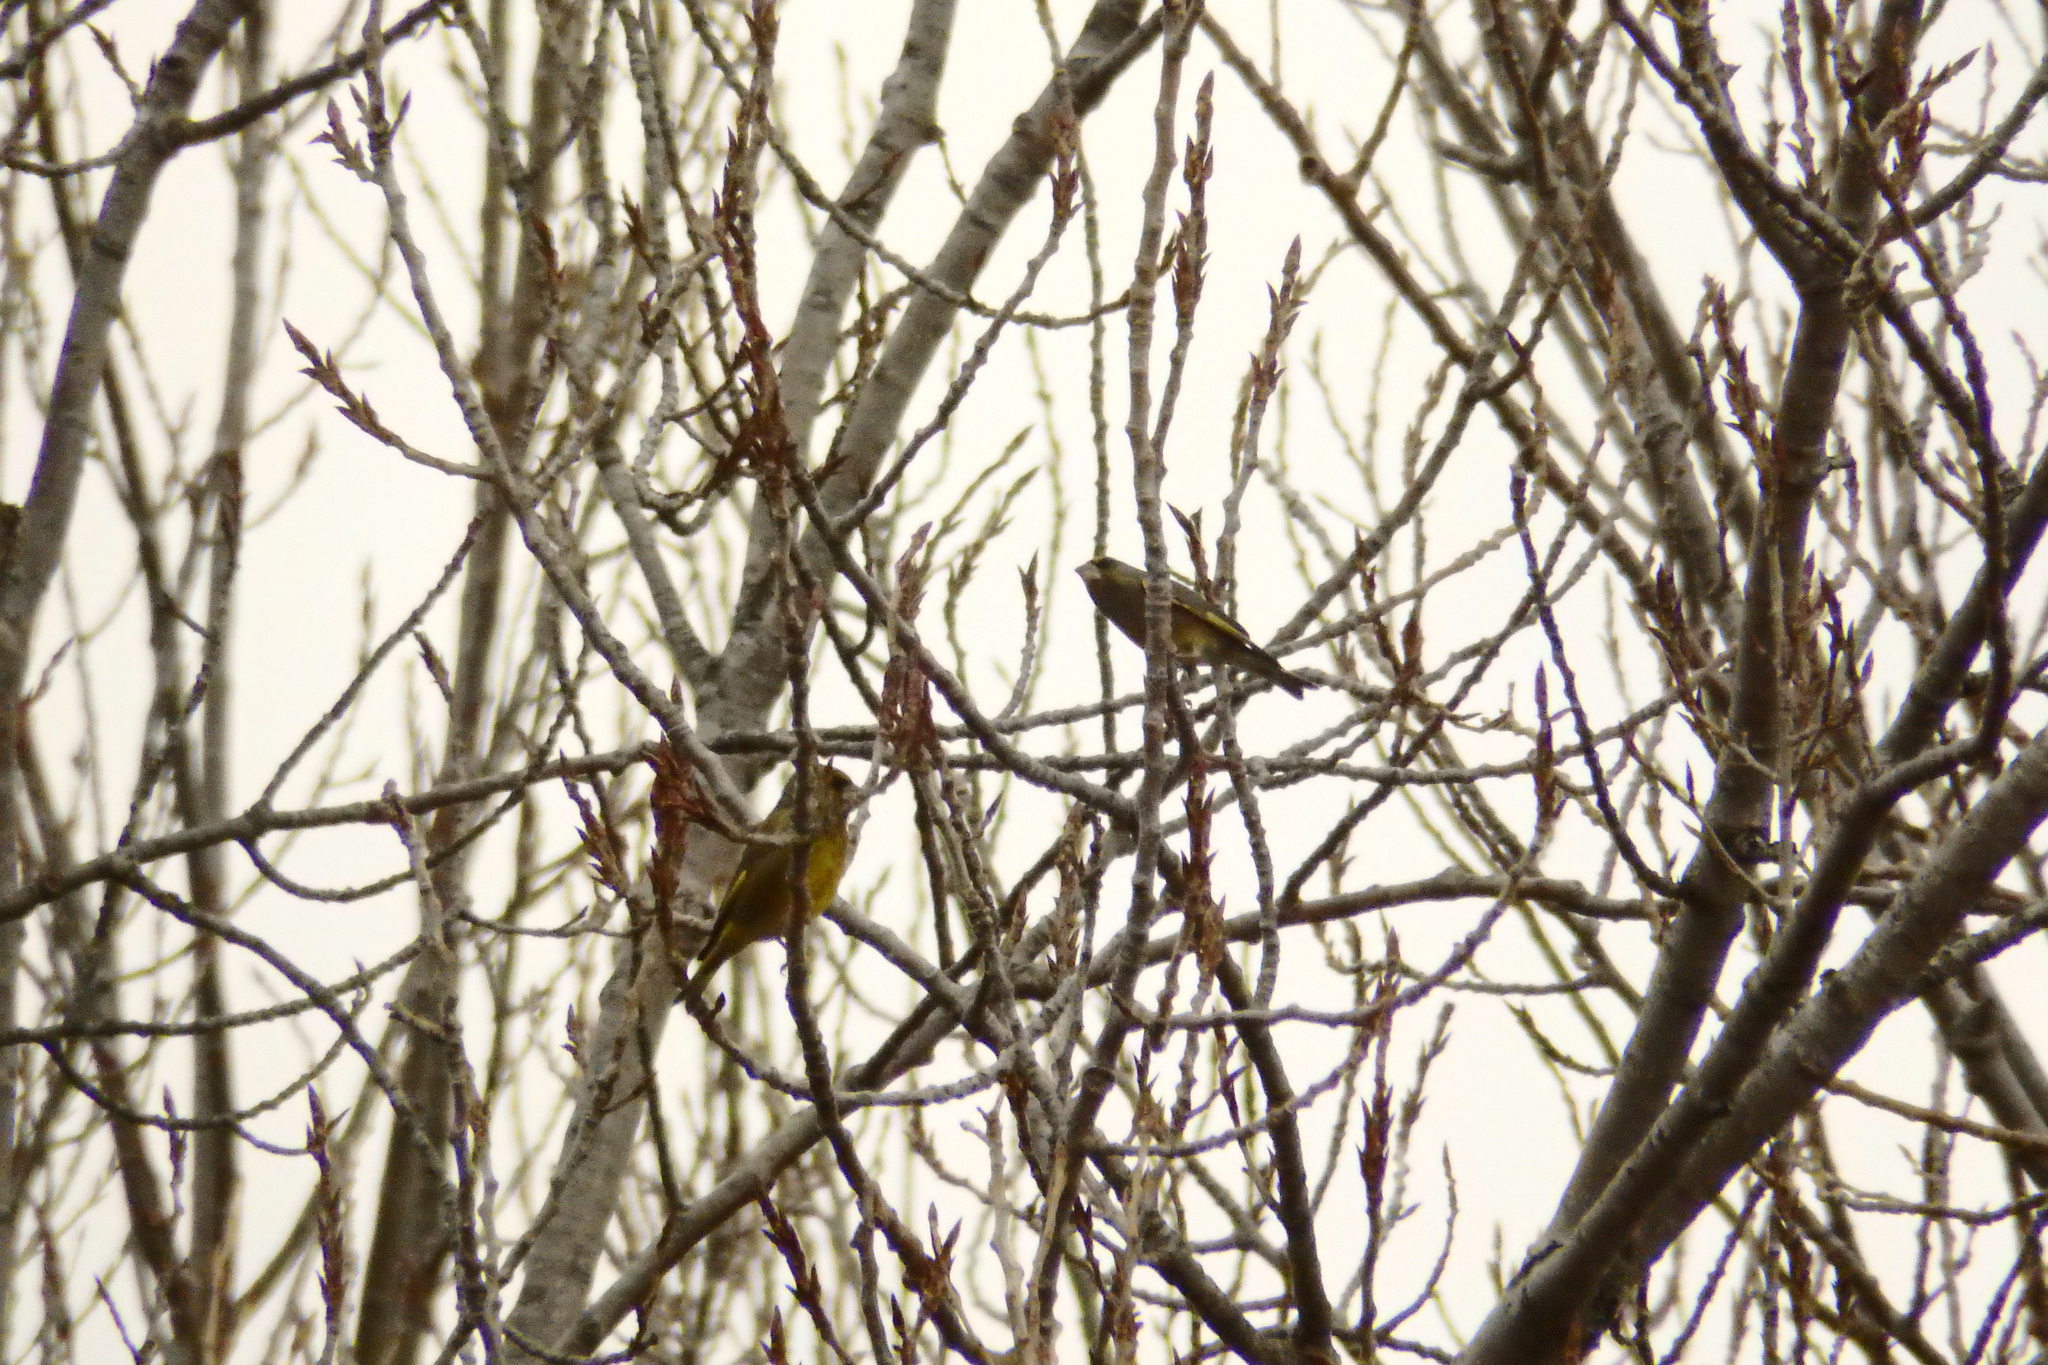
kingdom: Plantae
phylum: Tracheophyta
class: Liliopsida
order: Poales
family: Poaceae
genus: Chloris
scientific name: Chloris chloris
